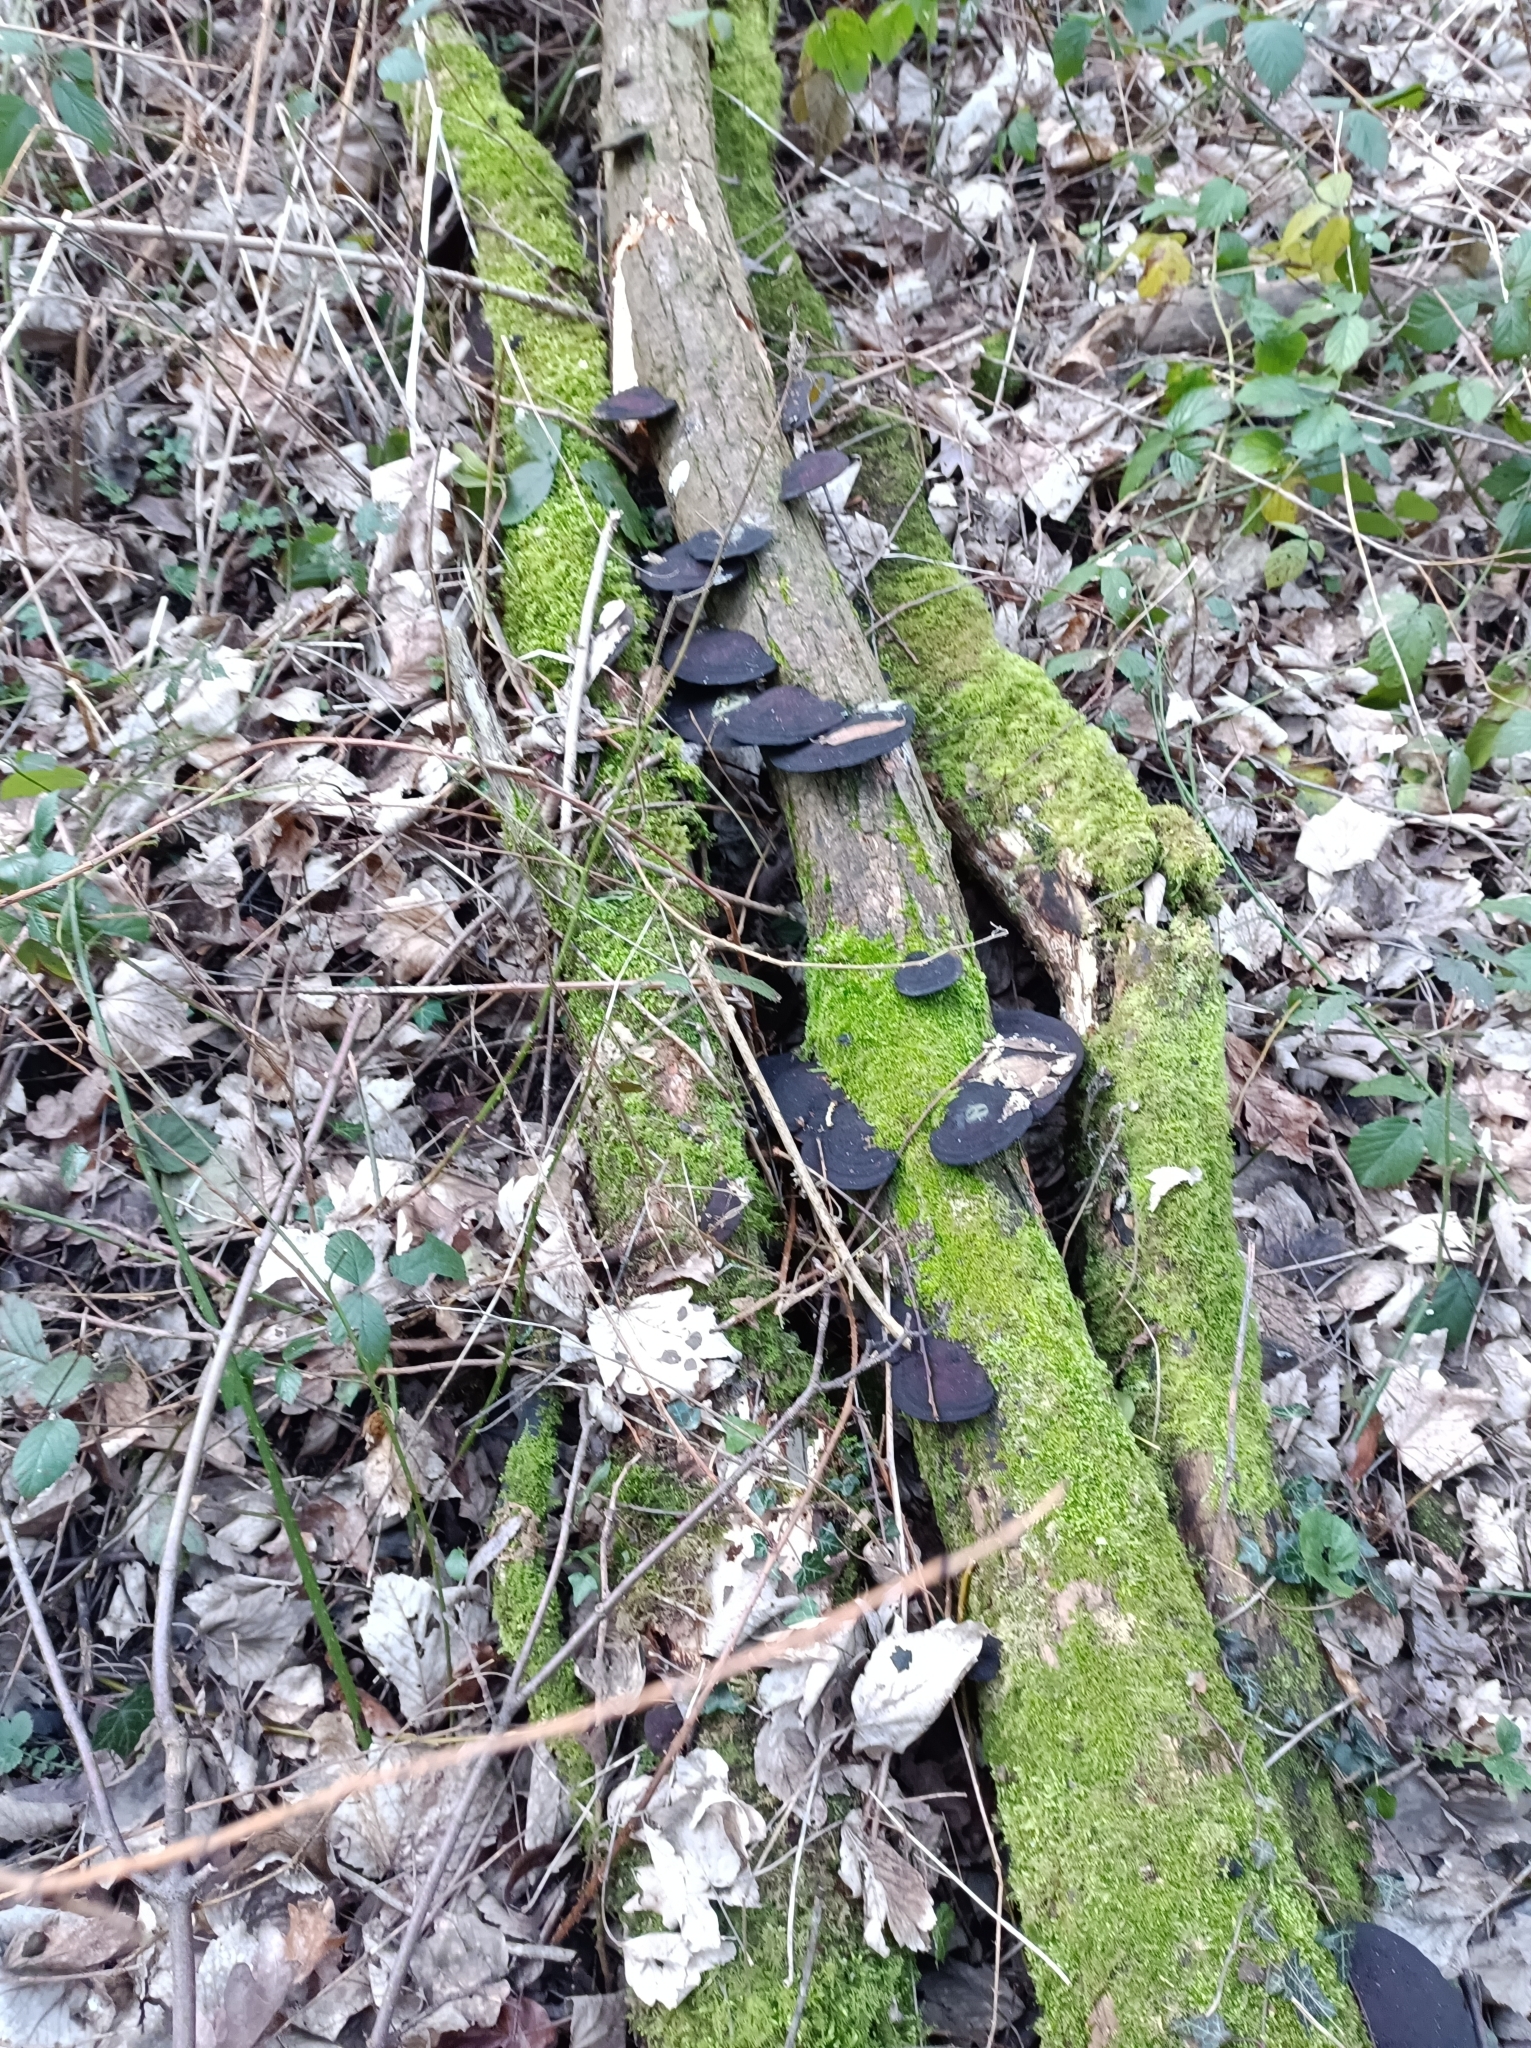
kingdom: Fungi
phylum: Basidiomycota
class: Agaricomycetes
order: Polyporales
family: Polyporaceae
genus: Daedaleopsis
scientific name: Daedaleopsis confragosa
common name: Blushing bracket
